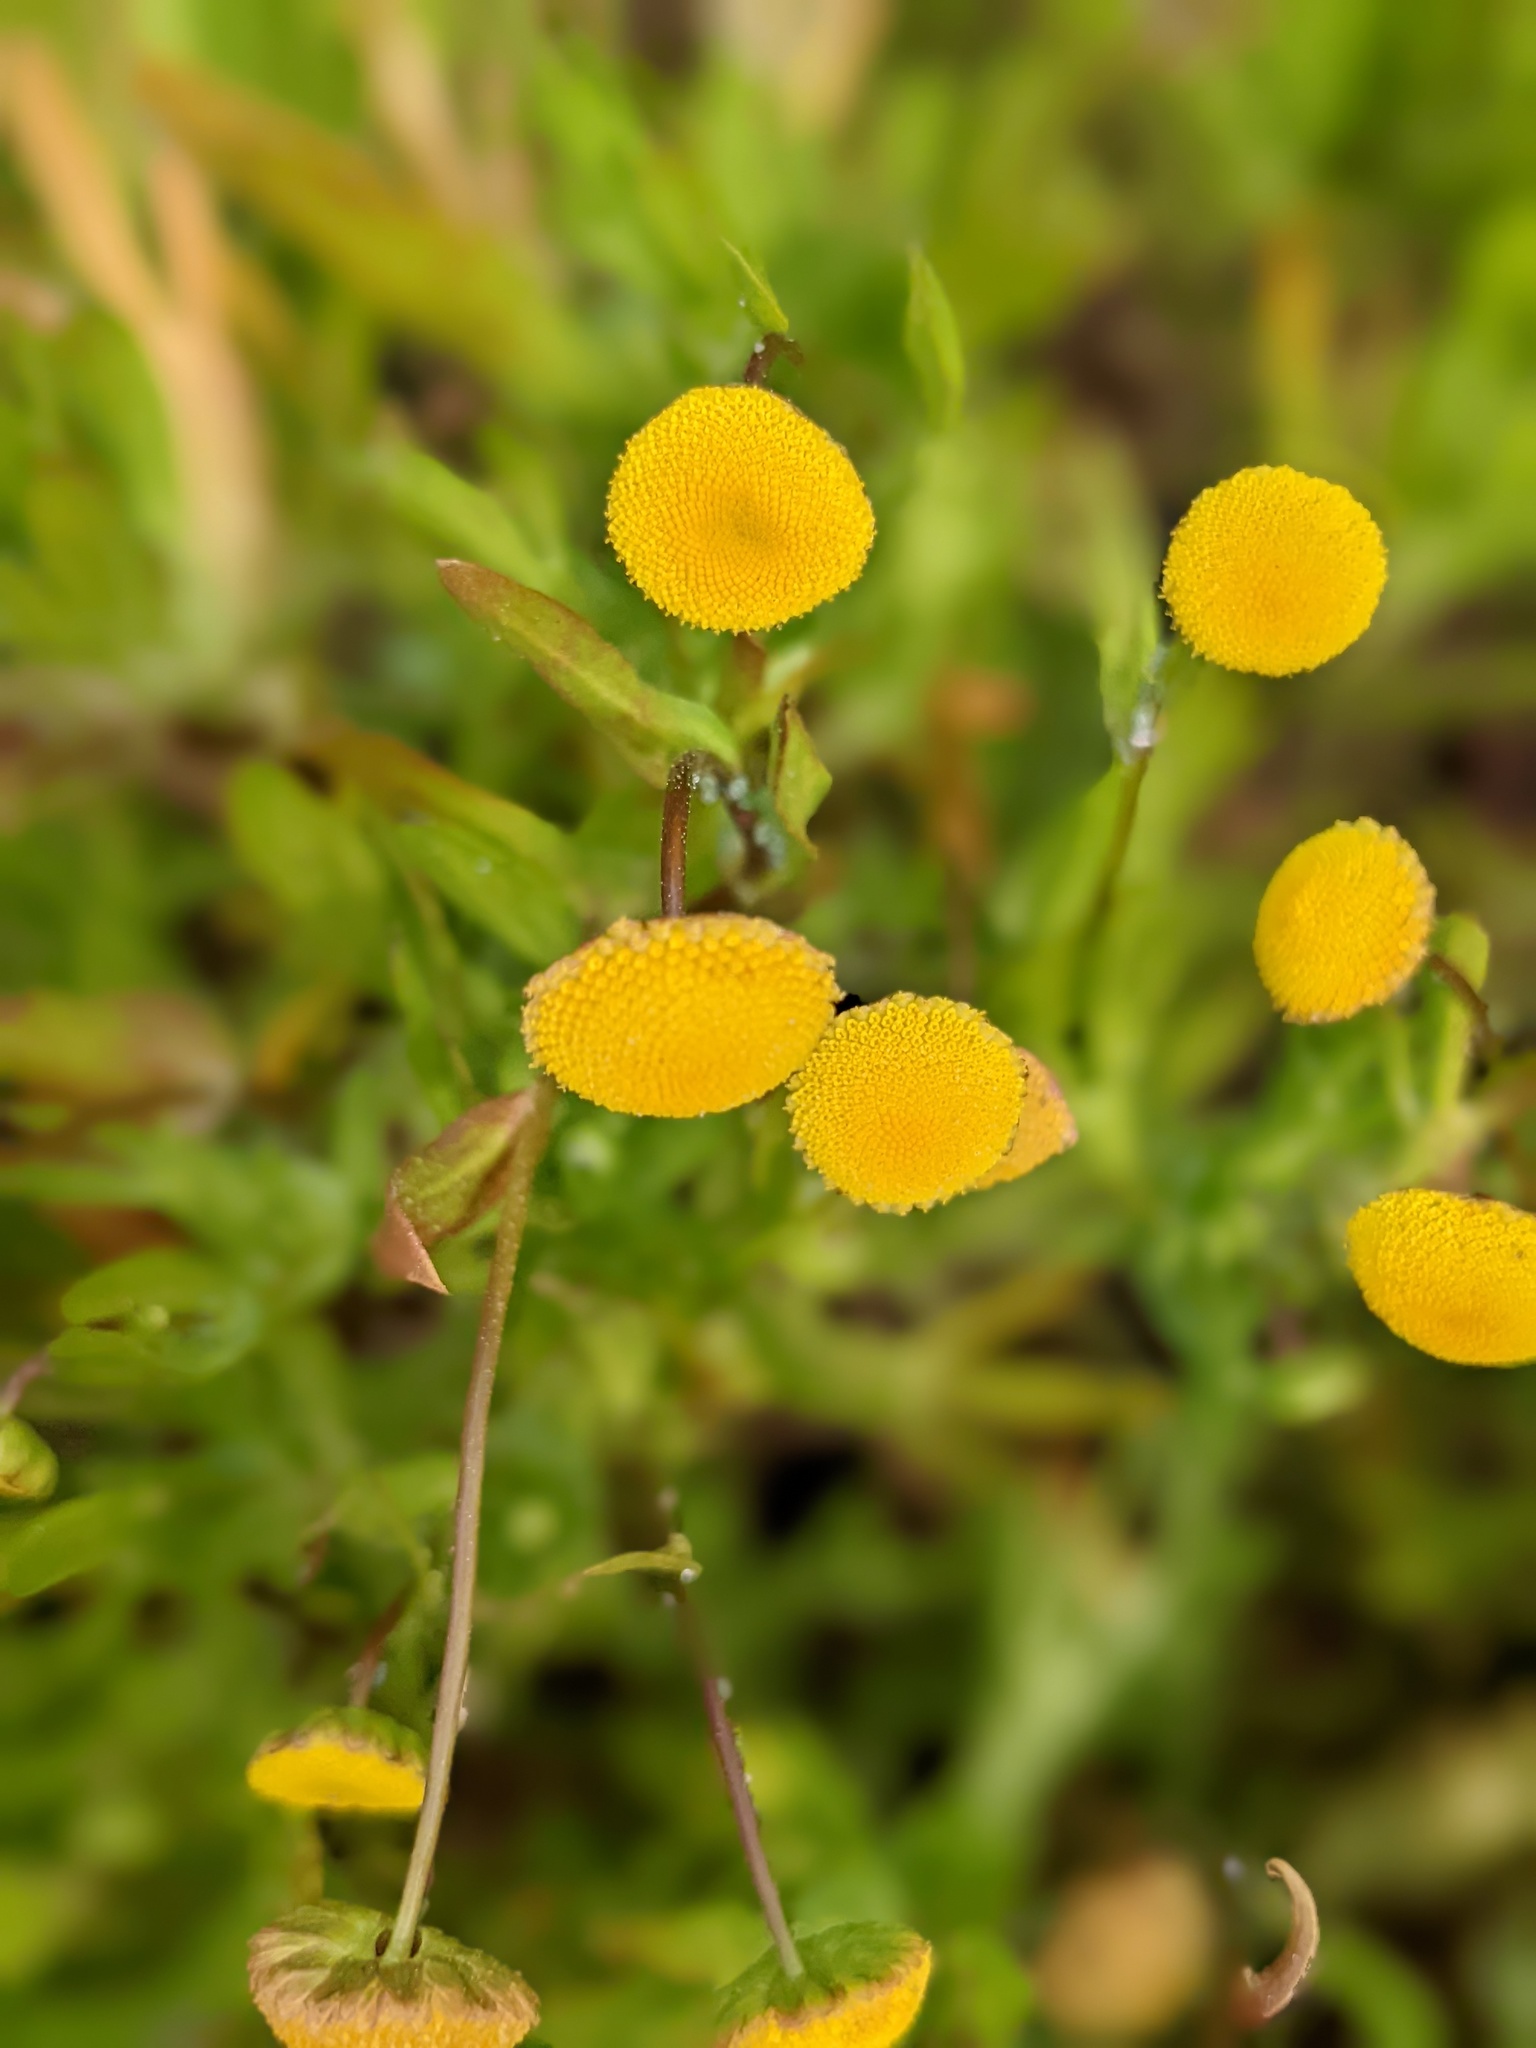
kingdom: Plantae
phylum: Tracheophyta
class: Magnoliopsida
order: Asterales
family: Asteraceae
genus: Cotula
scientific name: Cotula coronopifolia
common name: Buttonweed
